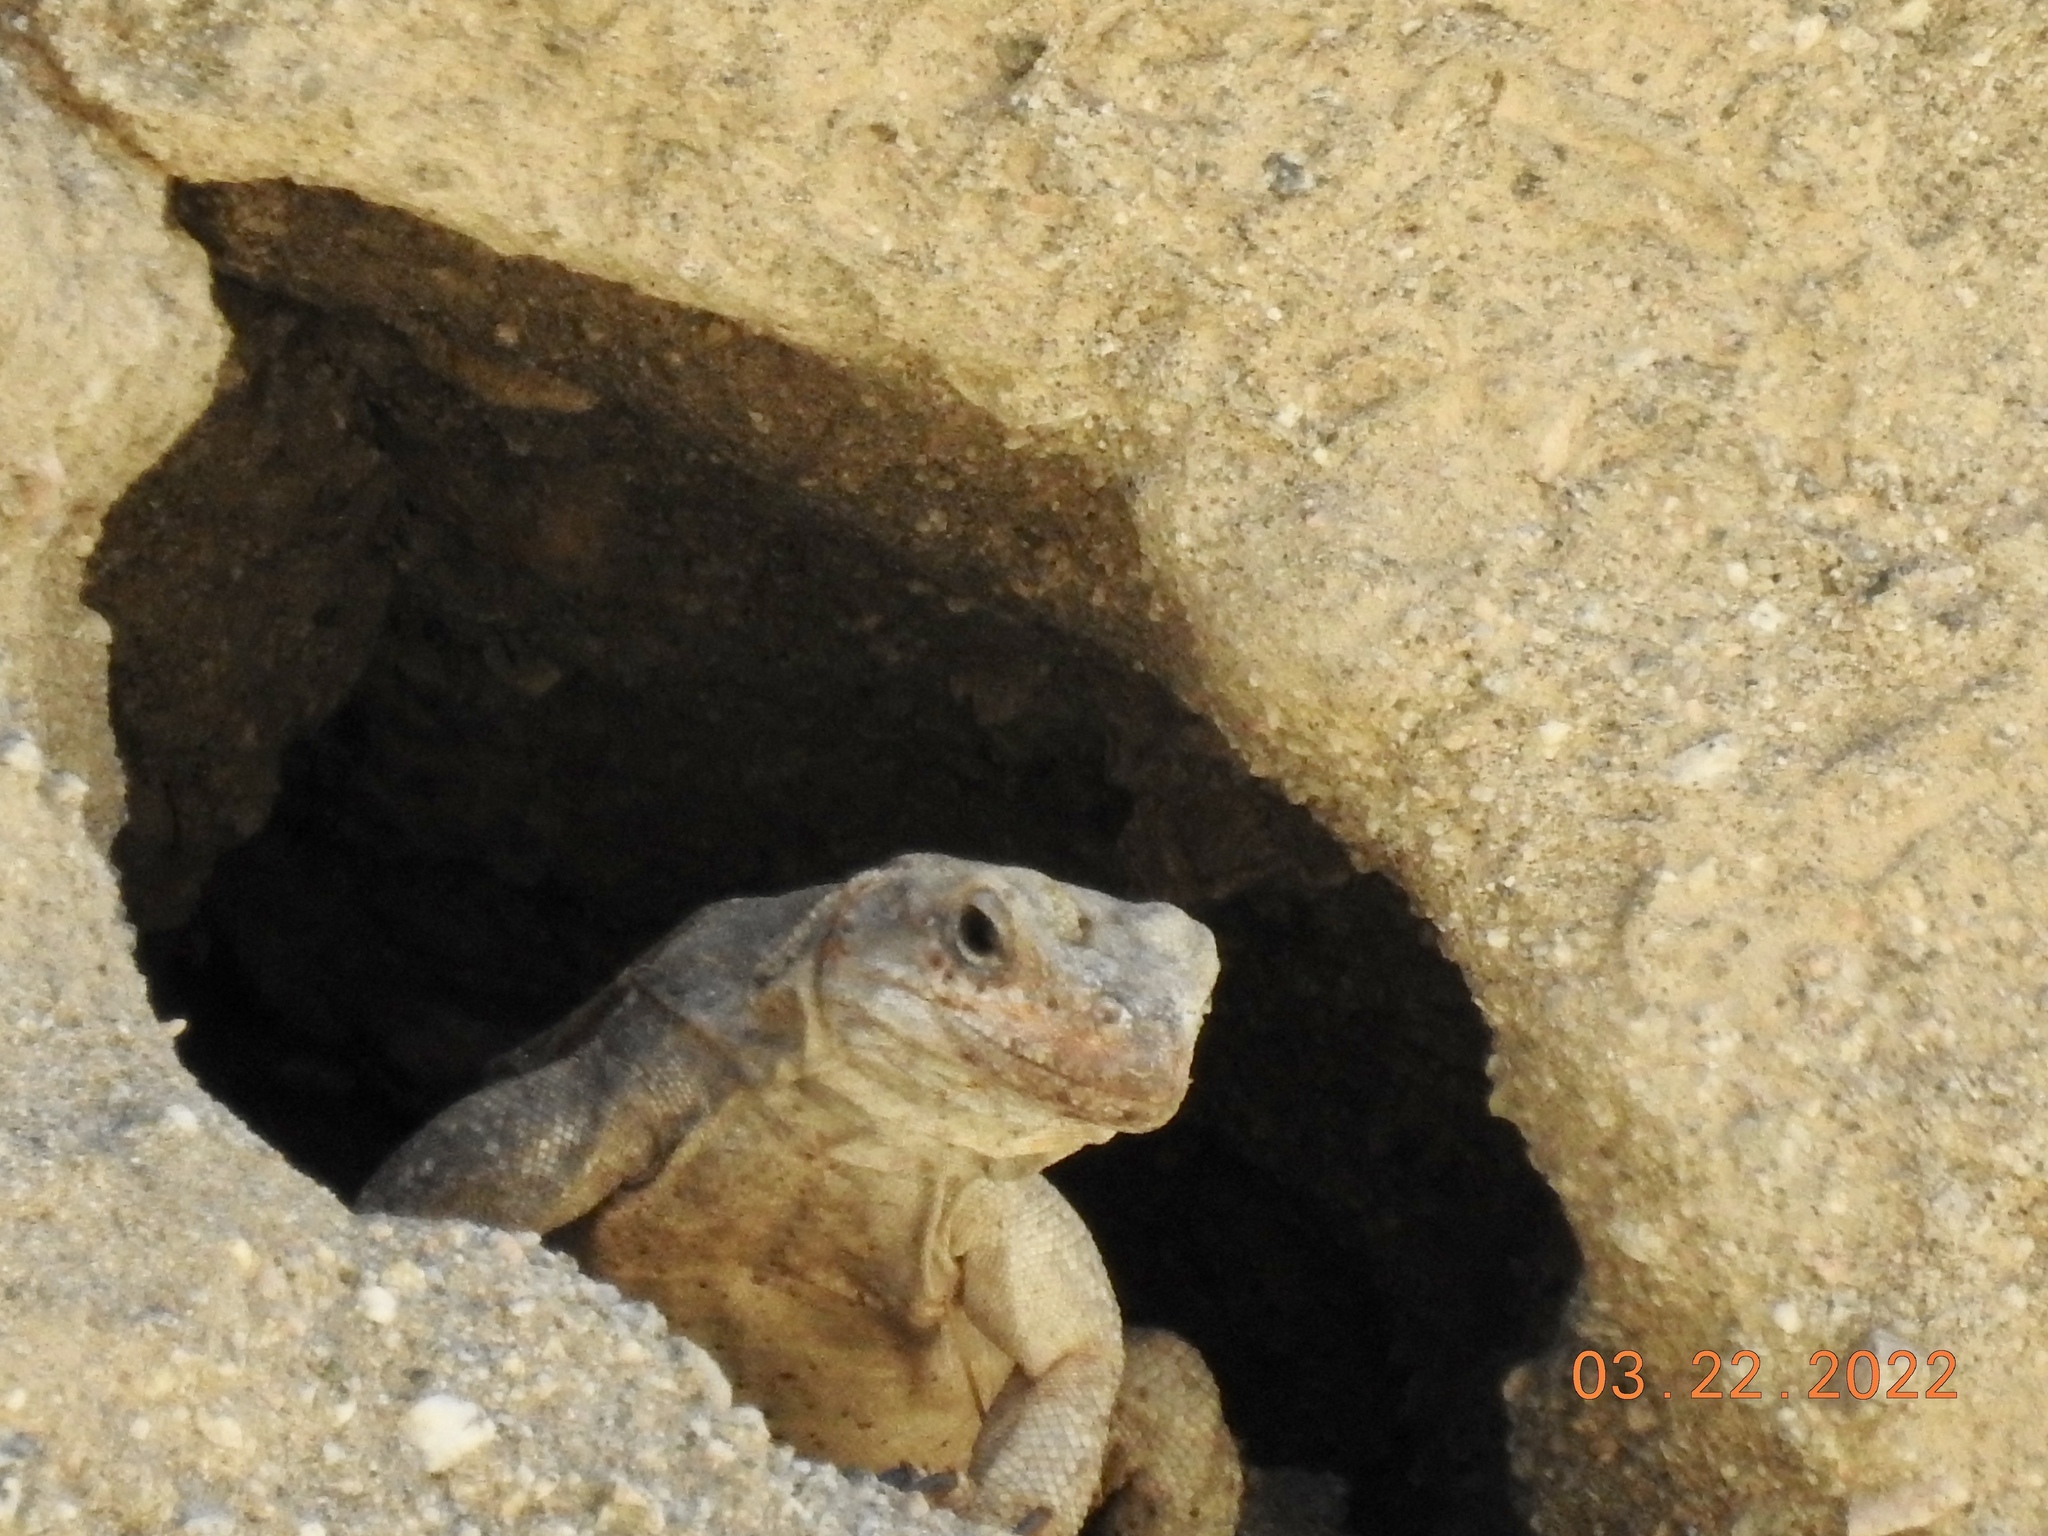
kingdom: Animalia
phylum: Chordata
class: Squamata
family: Iguanidae
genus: Sauromalus
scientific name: Sauromalus ater
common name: Northern chuckwalla
